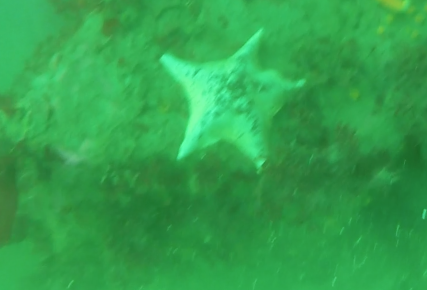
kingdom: Animalia
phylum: Echinodermata
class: Asteroidea
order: Valvatida
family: Asterinidae
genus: Patiria
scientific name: Patiria miniata
